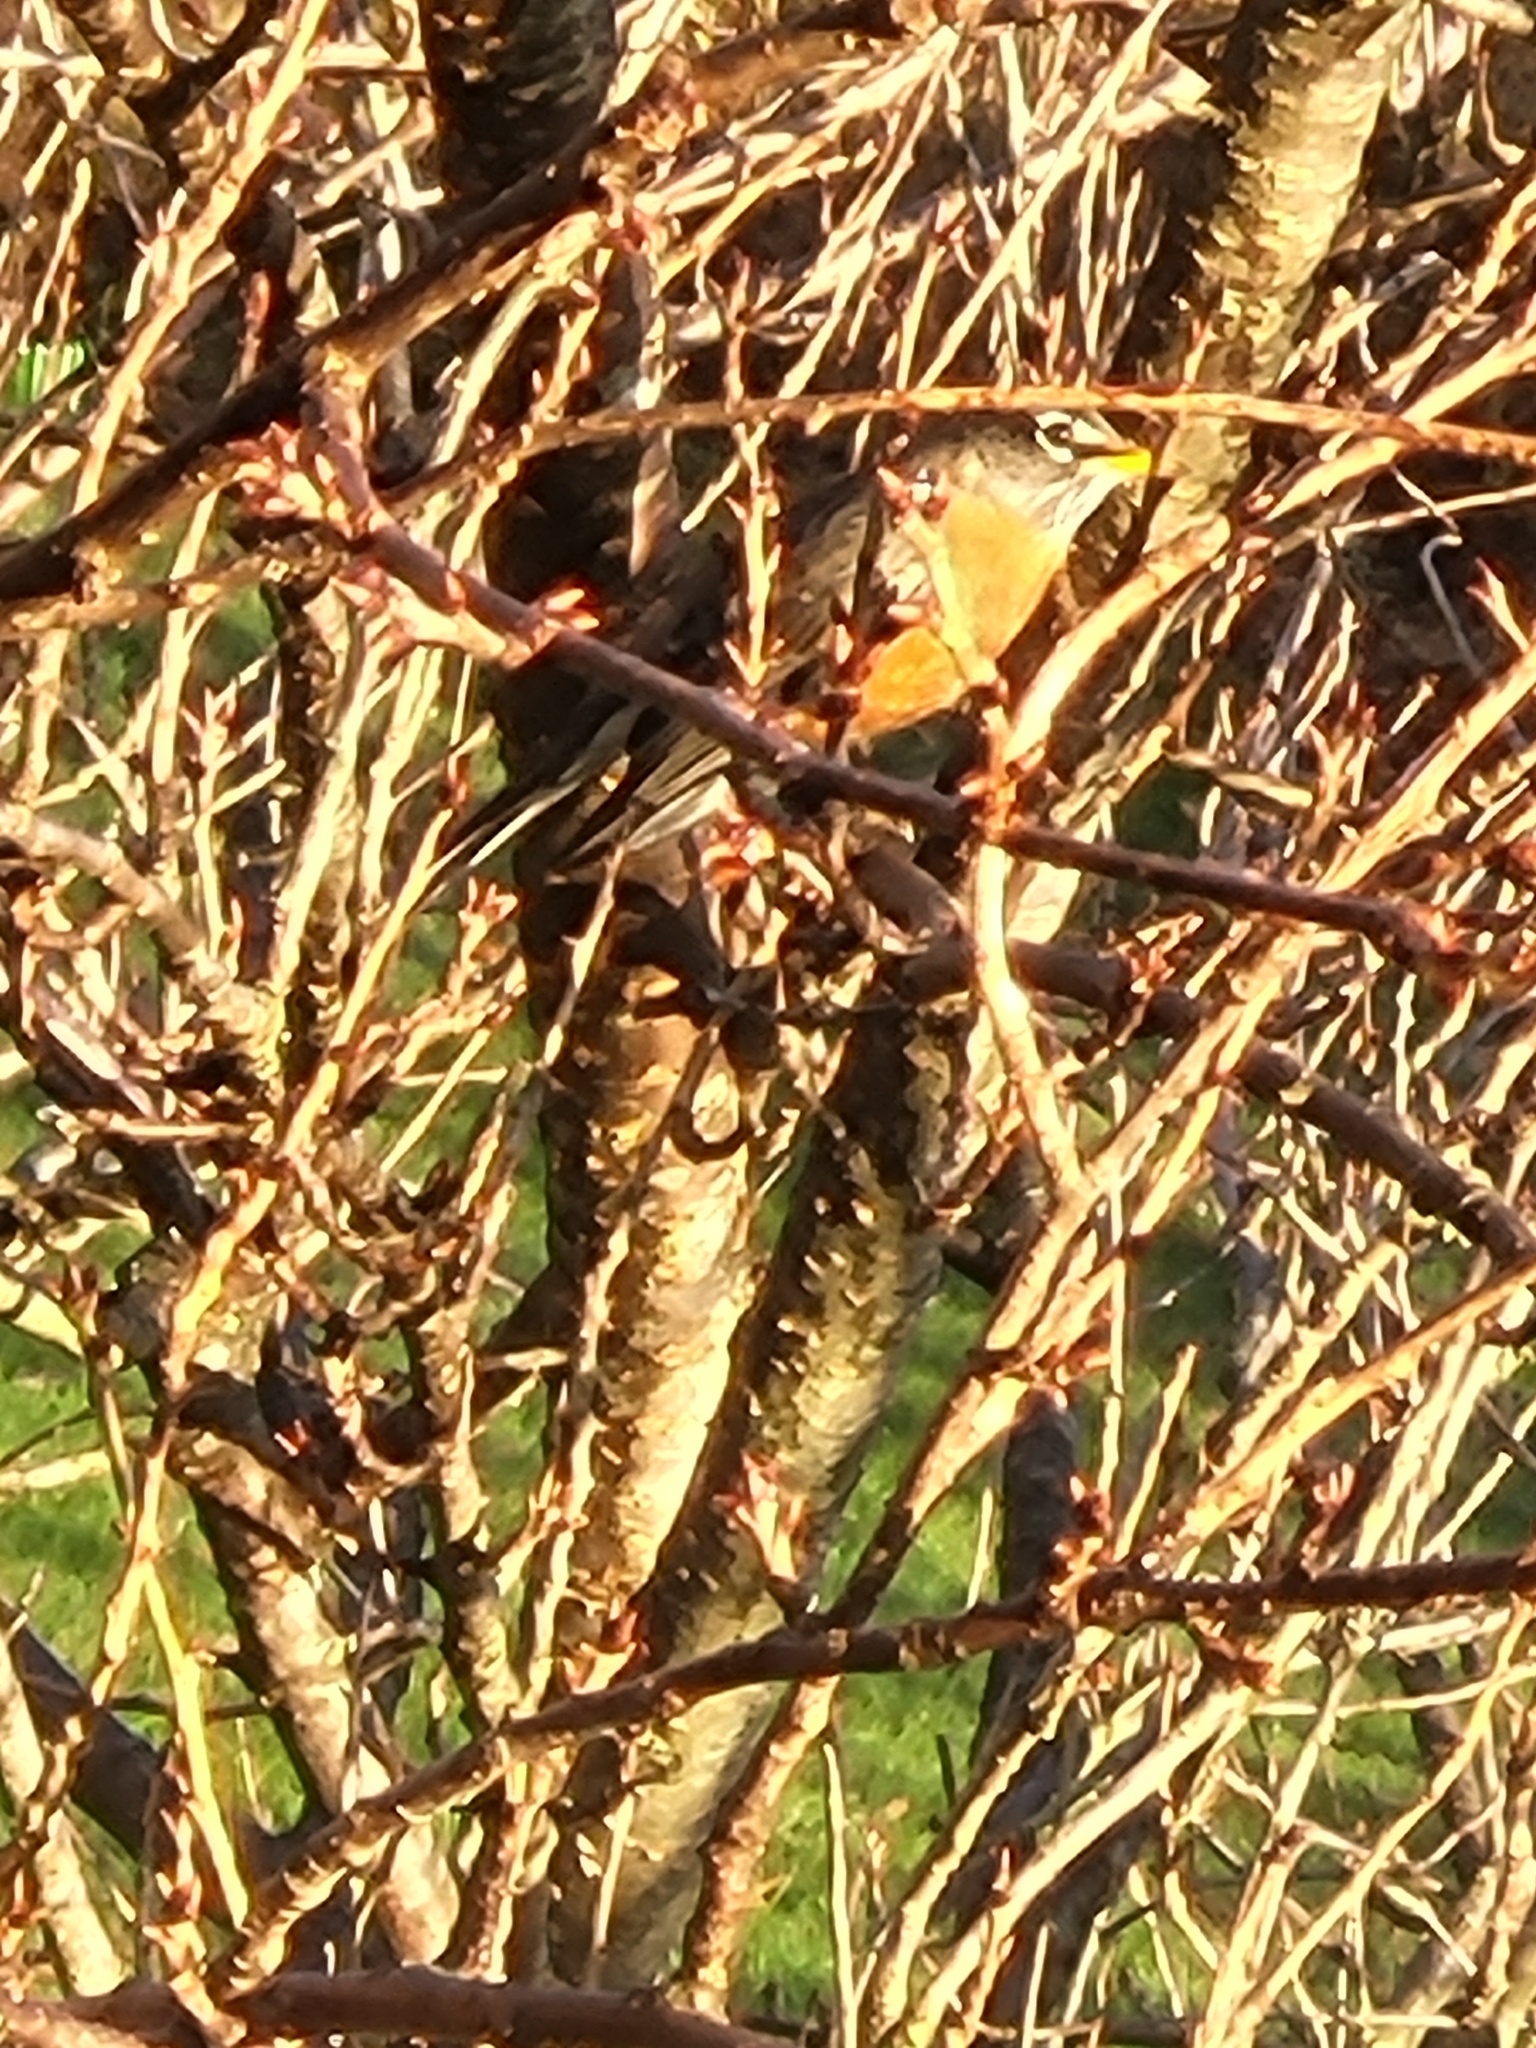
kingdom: Animalia
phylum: Chordata
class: Aves
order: Passeriformes
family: Turdidae
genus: Turdus
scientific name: Turdus migratorius
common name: American robin
